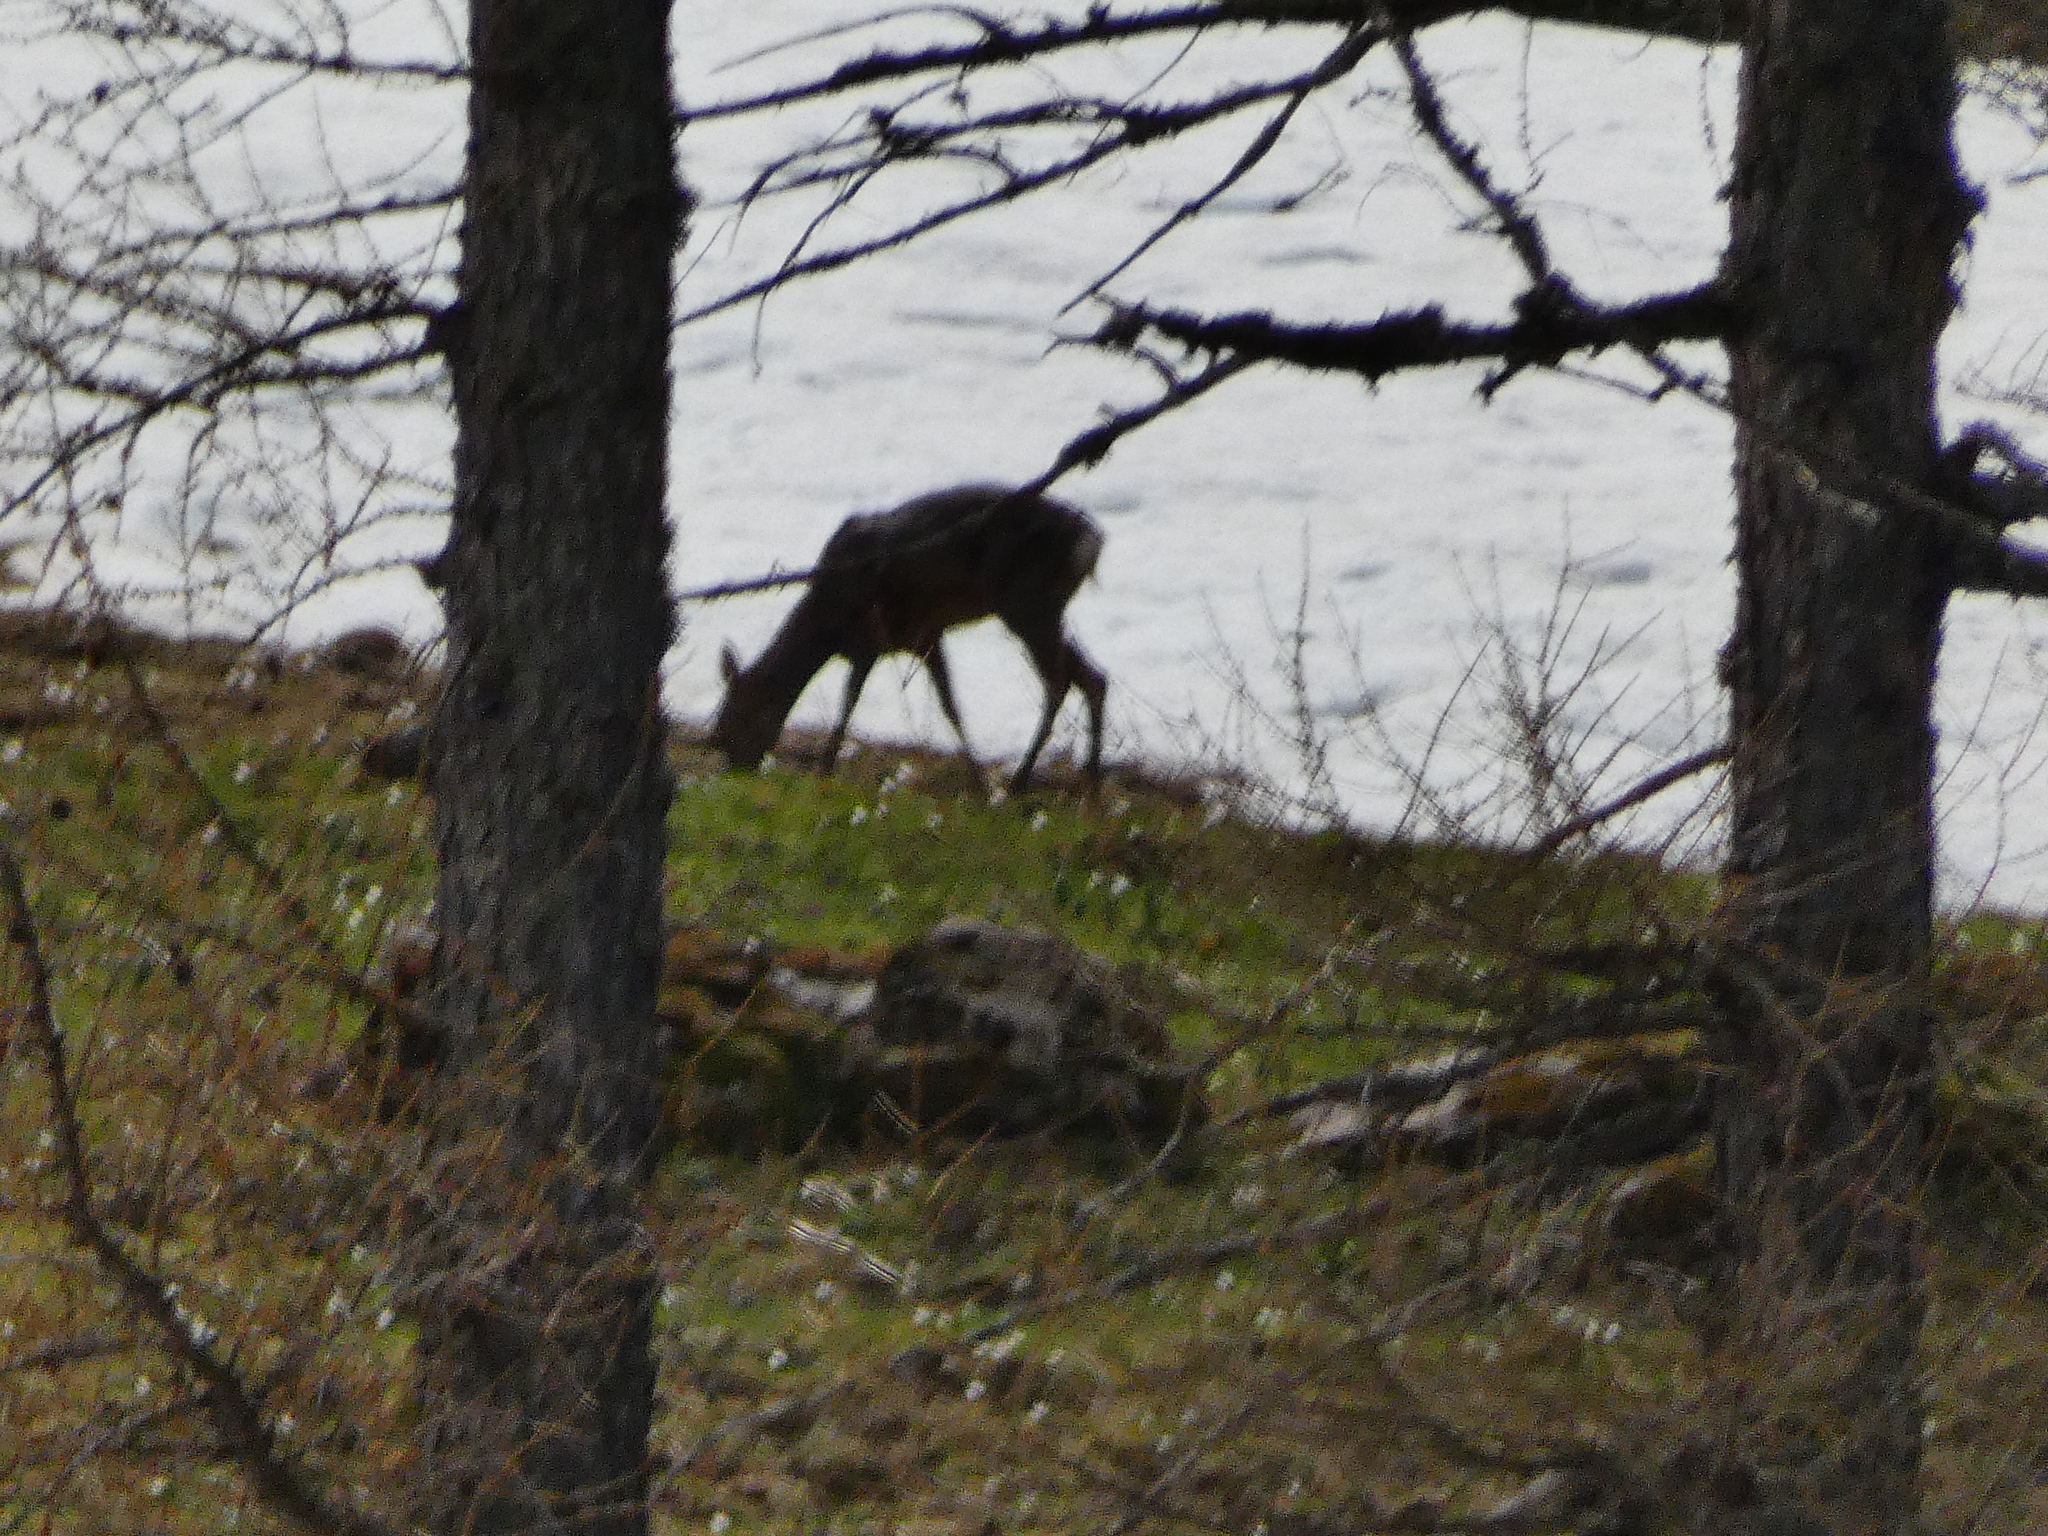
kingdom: Animalia
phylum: Chordata
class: Mammalia
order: Artiodactyla
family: Cervidae
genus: Capreolus
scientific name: Capreolus capreolus
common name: Western roe deer
